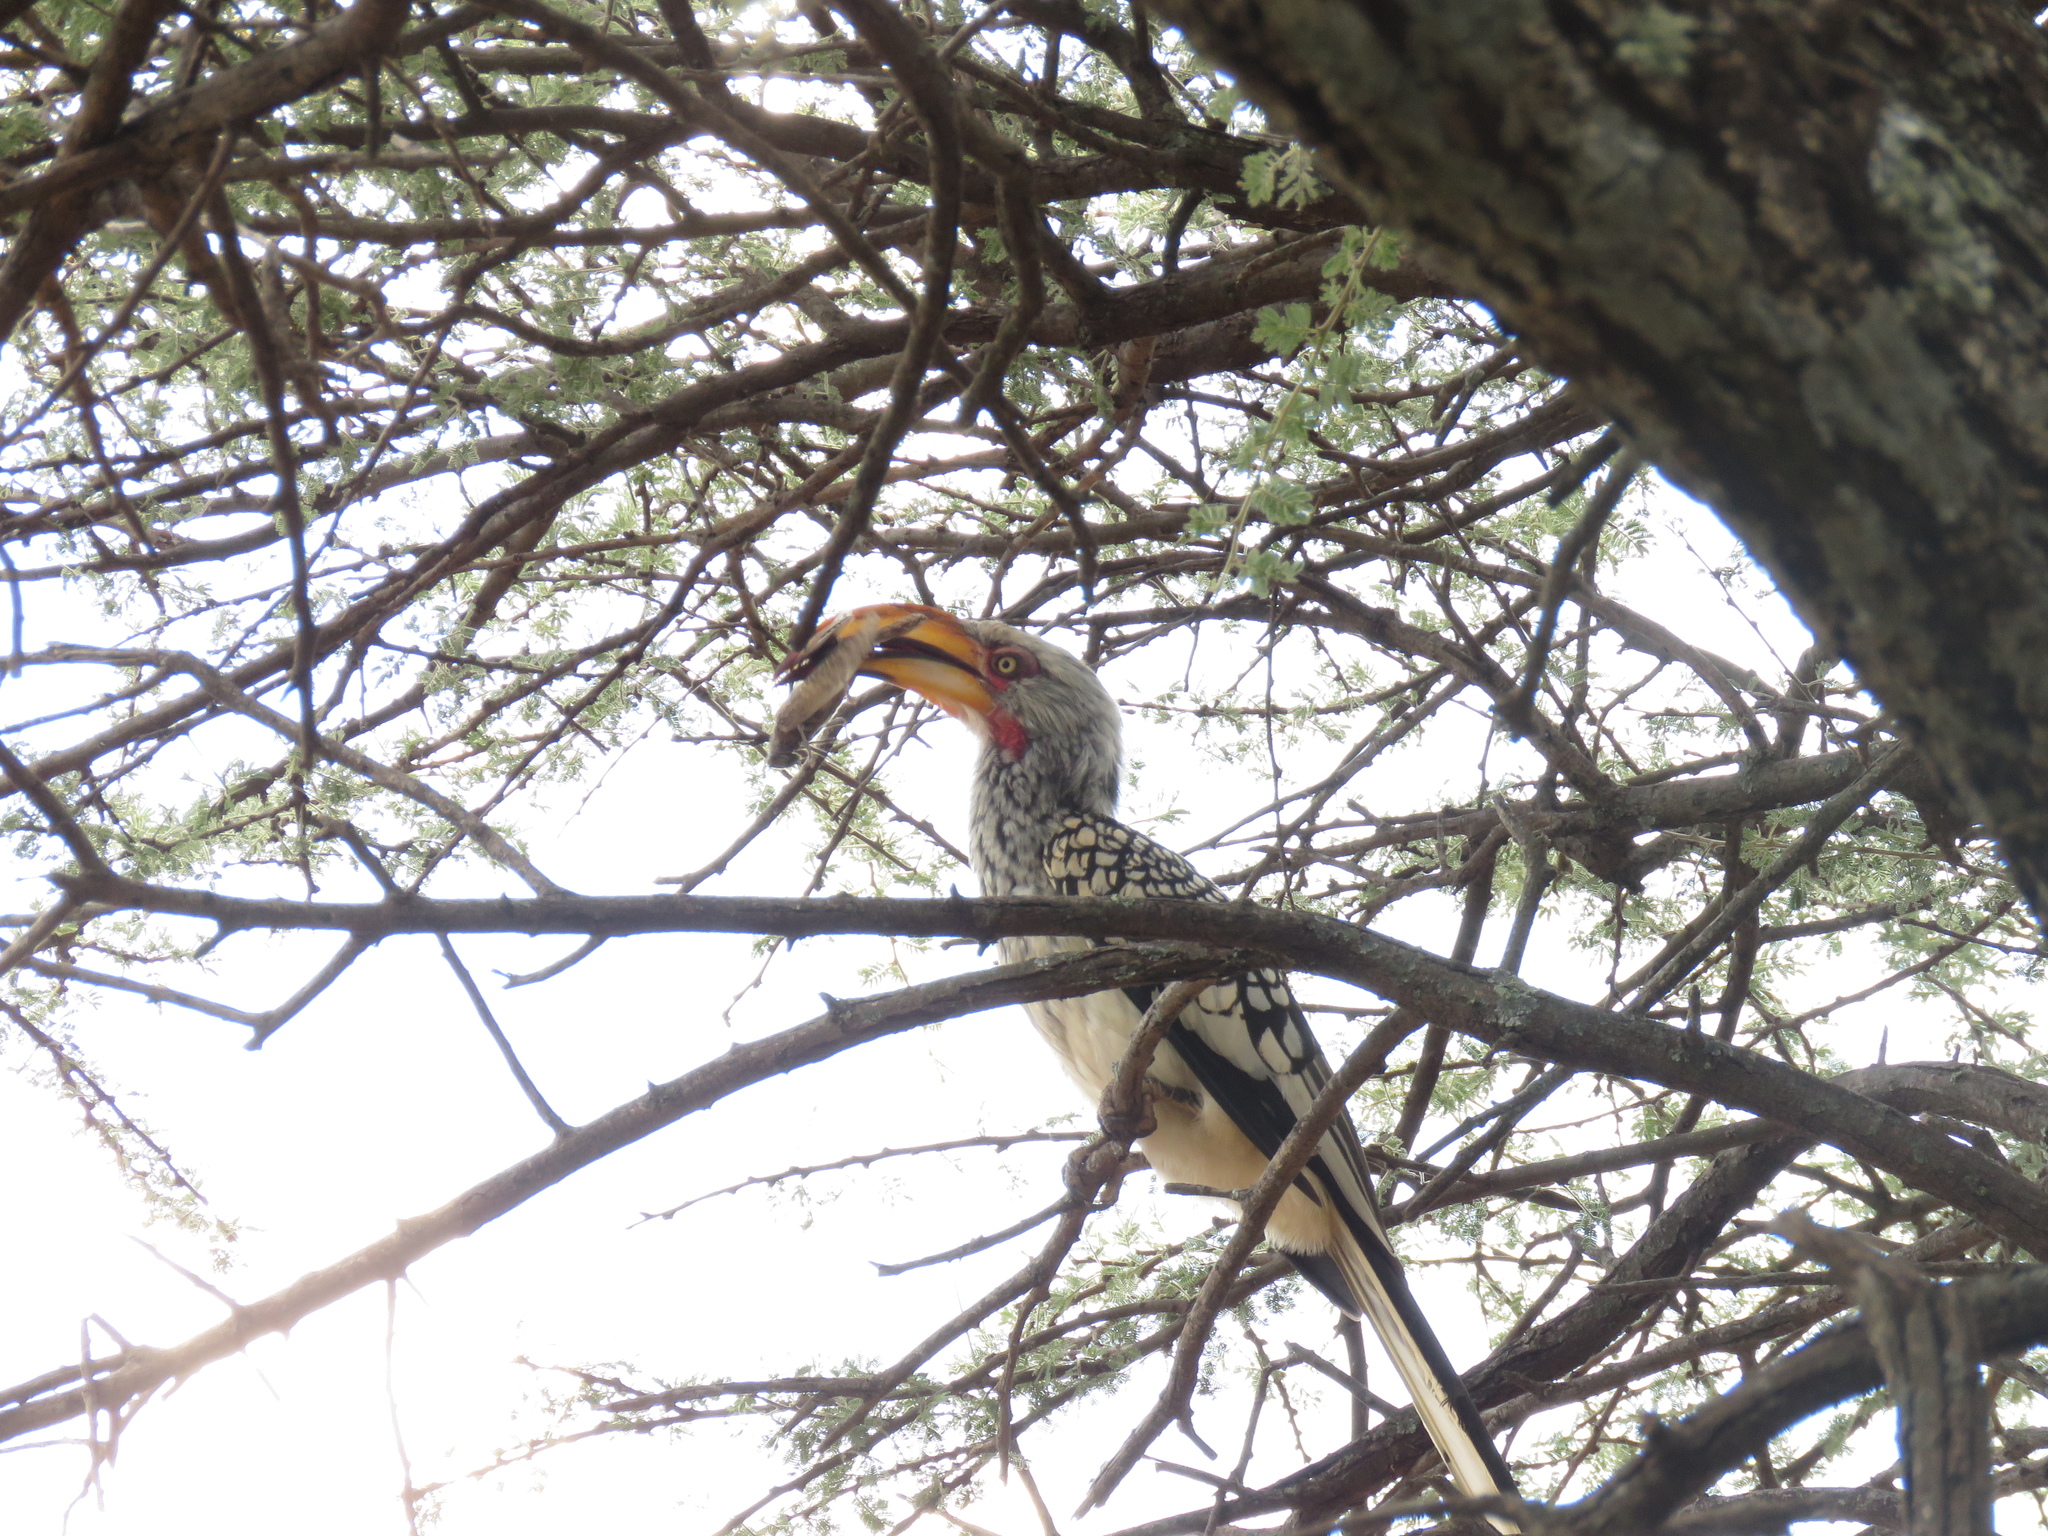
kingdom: Animalia
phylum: Chordata
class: Aves
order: Bucerotiformes
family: Bucerotidae
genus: Tockus
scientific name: Tockus leucomelas
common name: Southern yellow-billed hornbill
